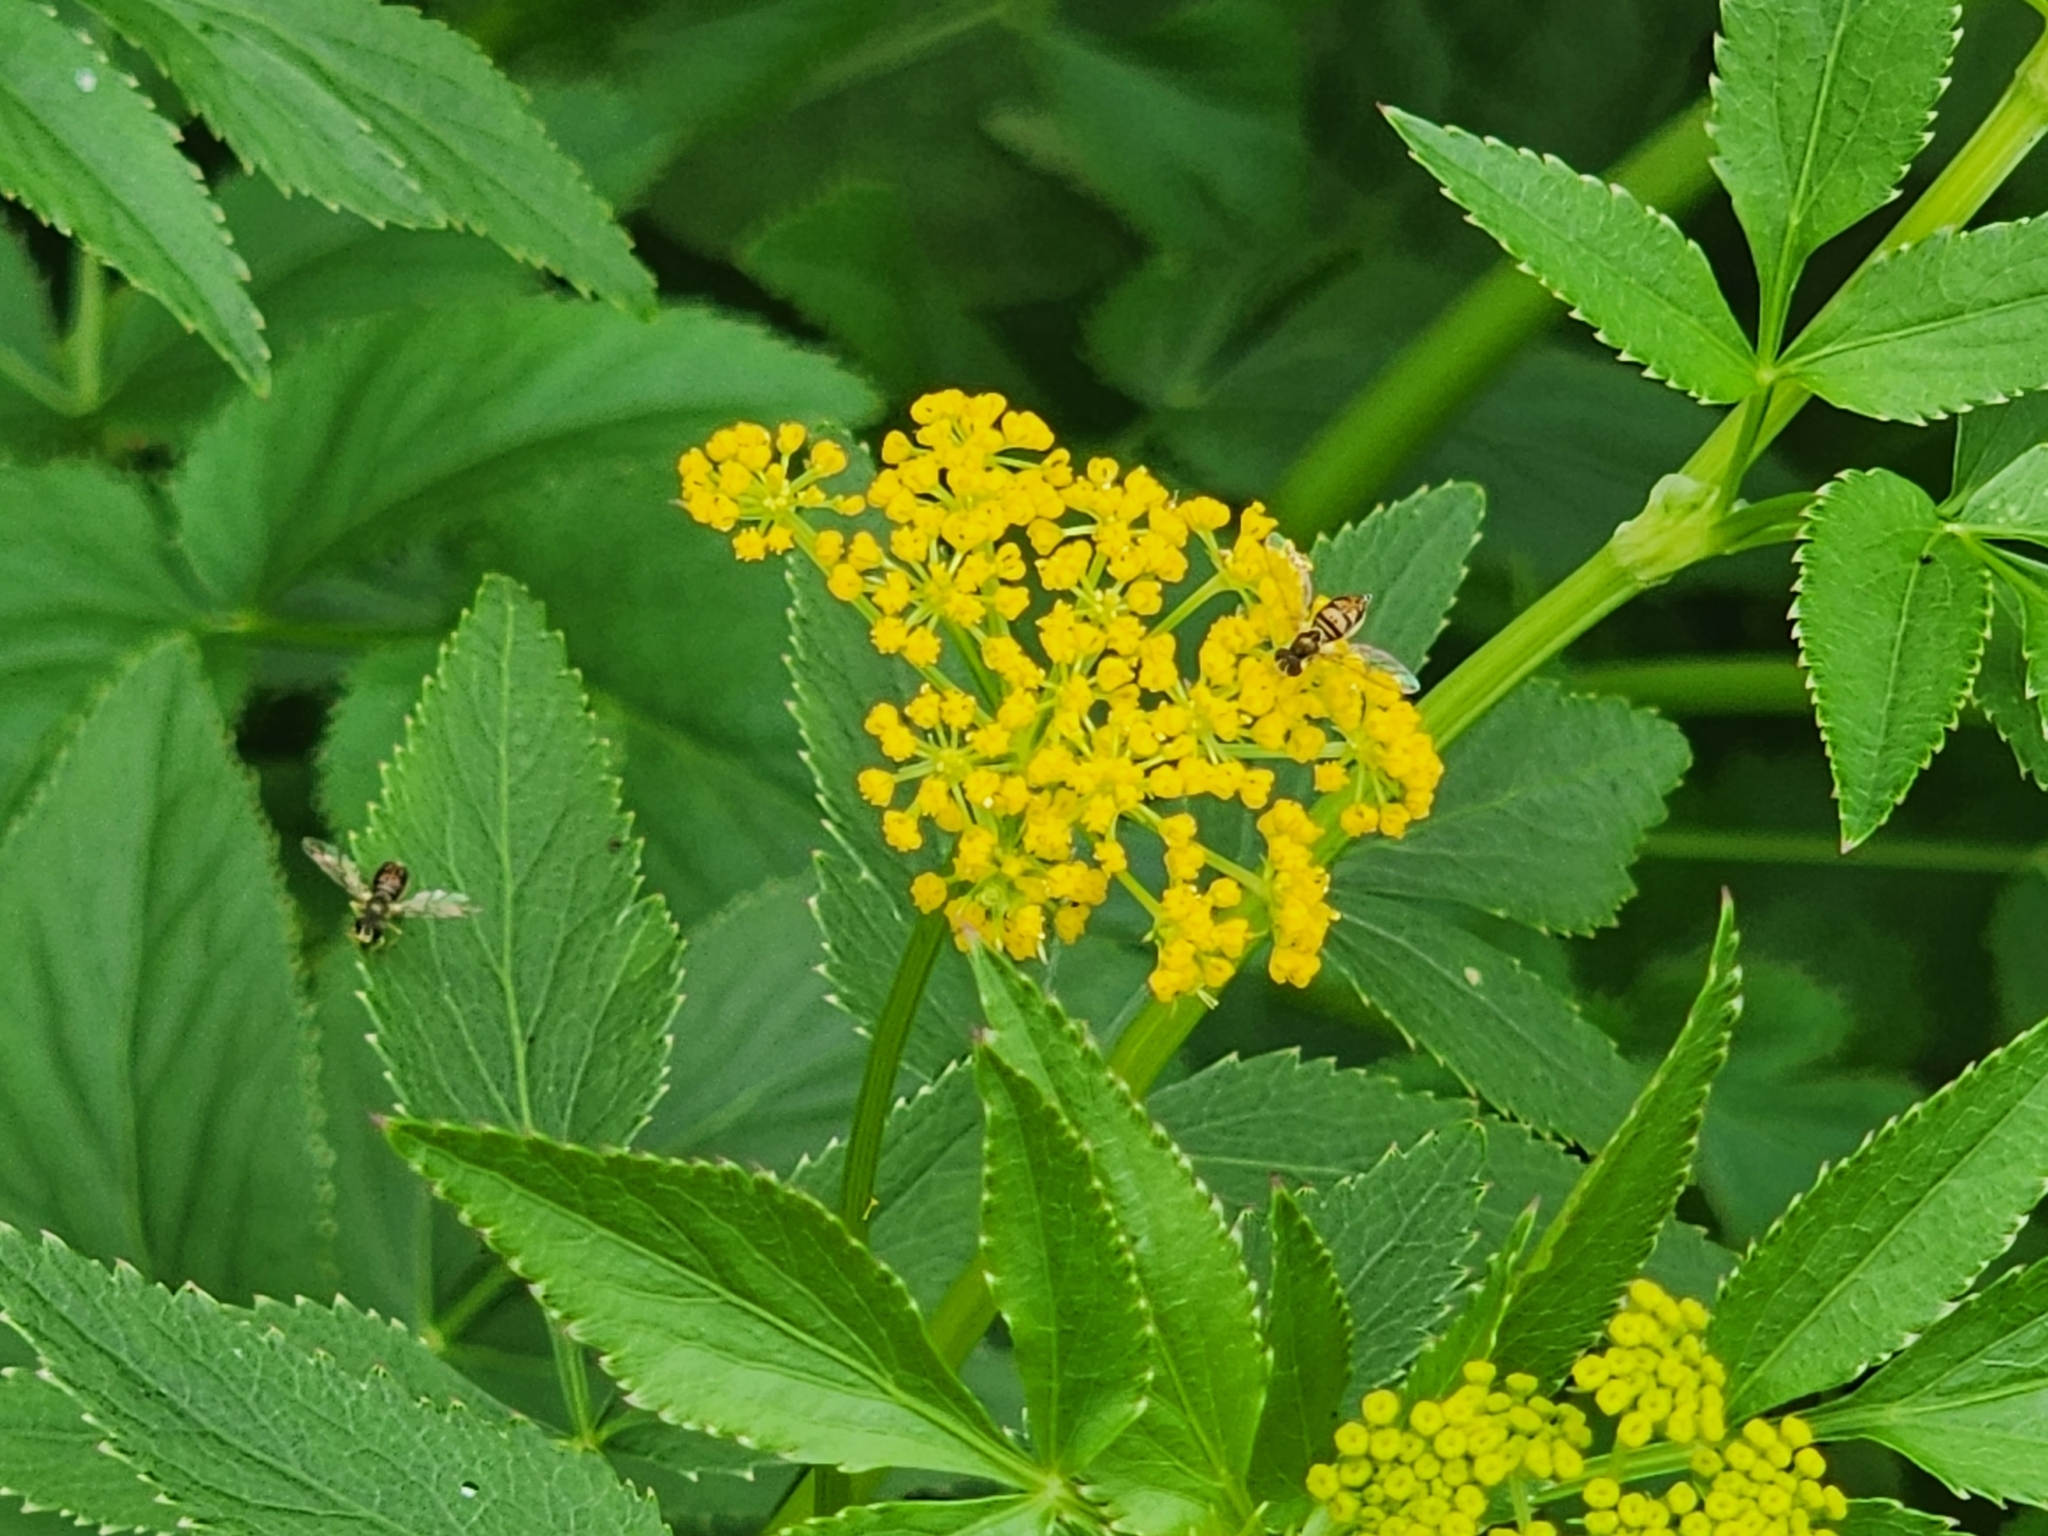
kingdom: Animalia
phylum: Arthropoda
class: Insecta
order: Diptera
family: Syrphidae
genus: Toxomerus
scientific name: Toxomerus marginatus
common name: Syrphid fly
